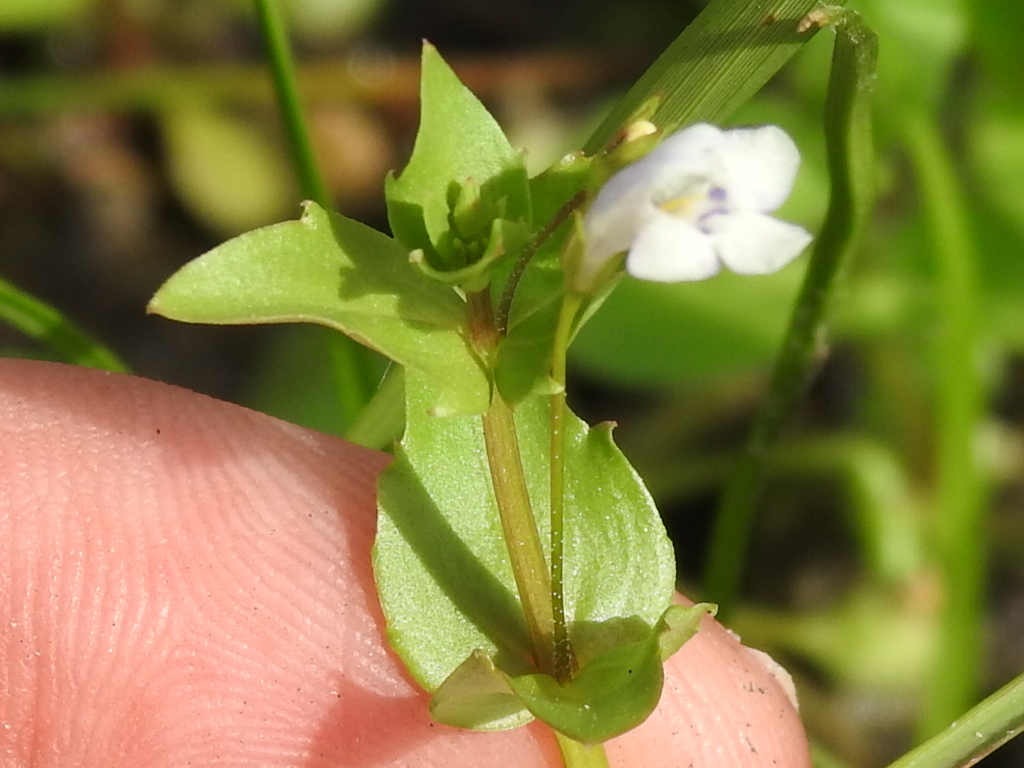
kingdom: Plantae
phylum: Tracheophyta
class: Magnoliopsida
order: Lamiales
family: Linderniaceae
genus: Lindernia
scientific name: Lindernia dubia
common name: Annual false pimpernel
